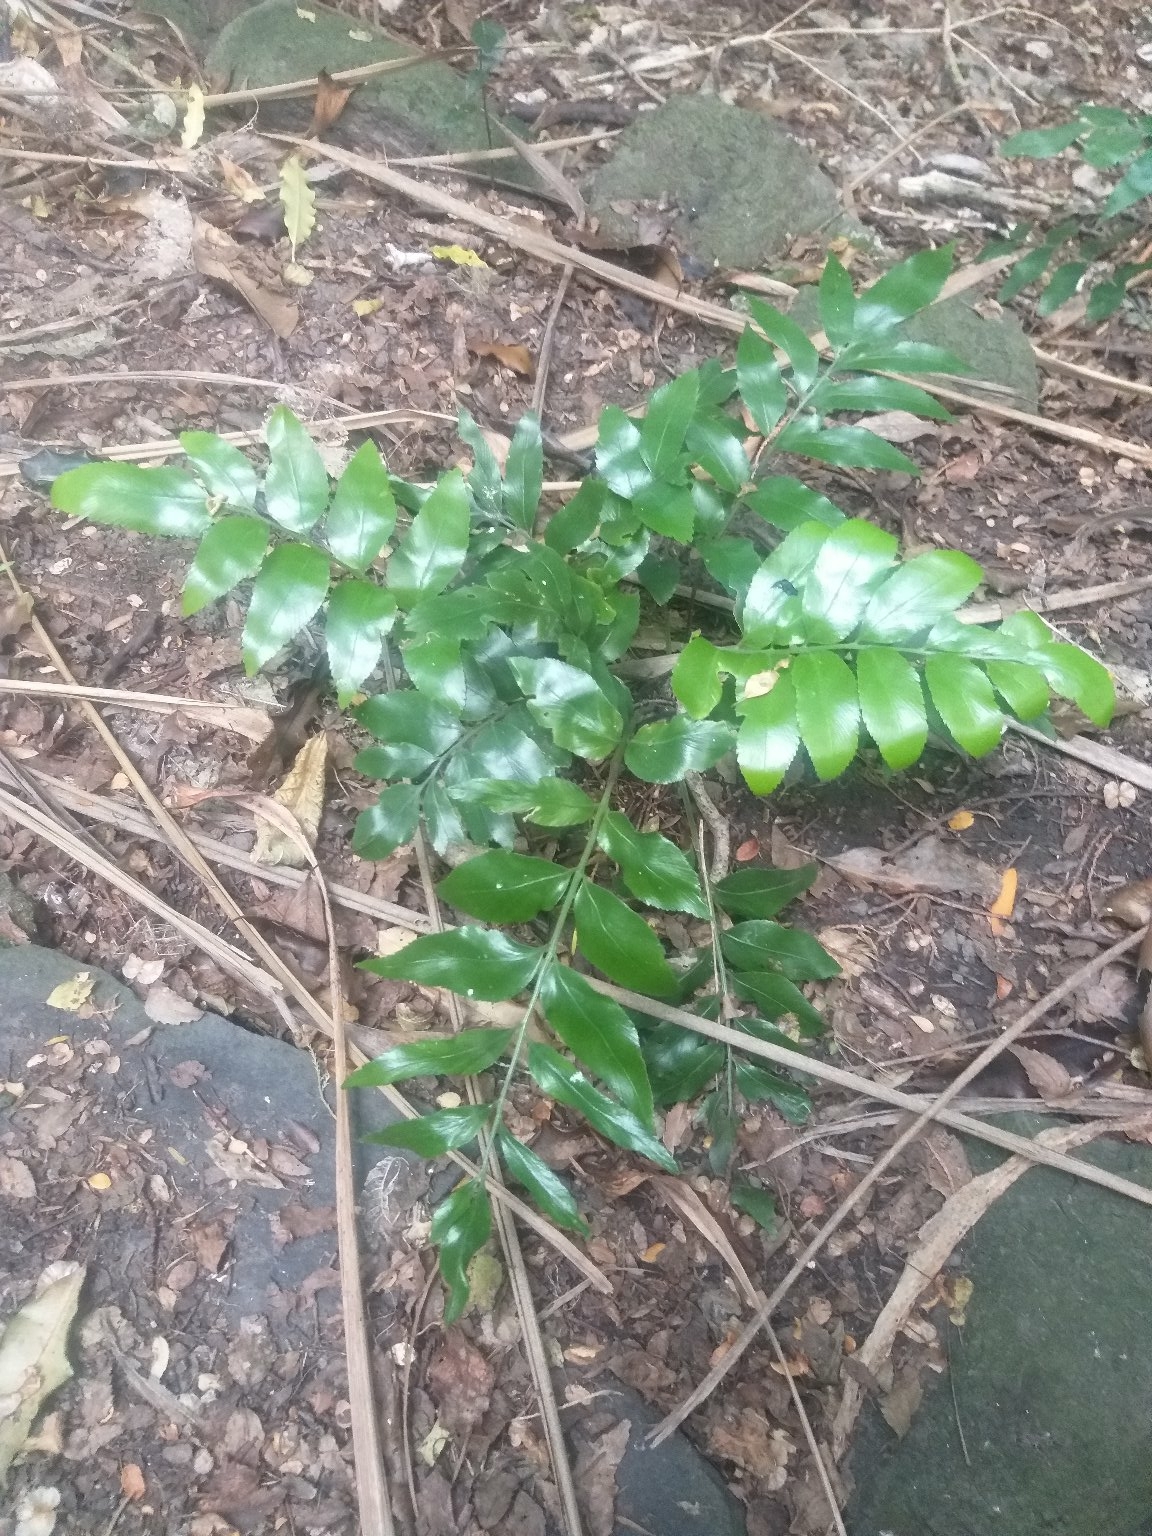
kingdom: Plantae
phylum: Tracheophyta
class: Polypodiopsida
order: Polypodiales
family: Aspleniaceae
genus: Asplenium
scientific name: Asplenium oblongifolium
